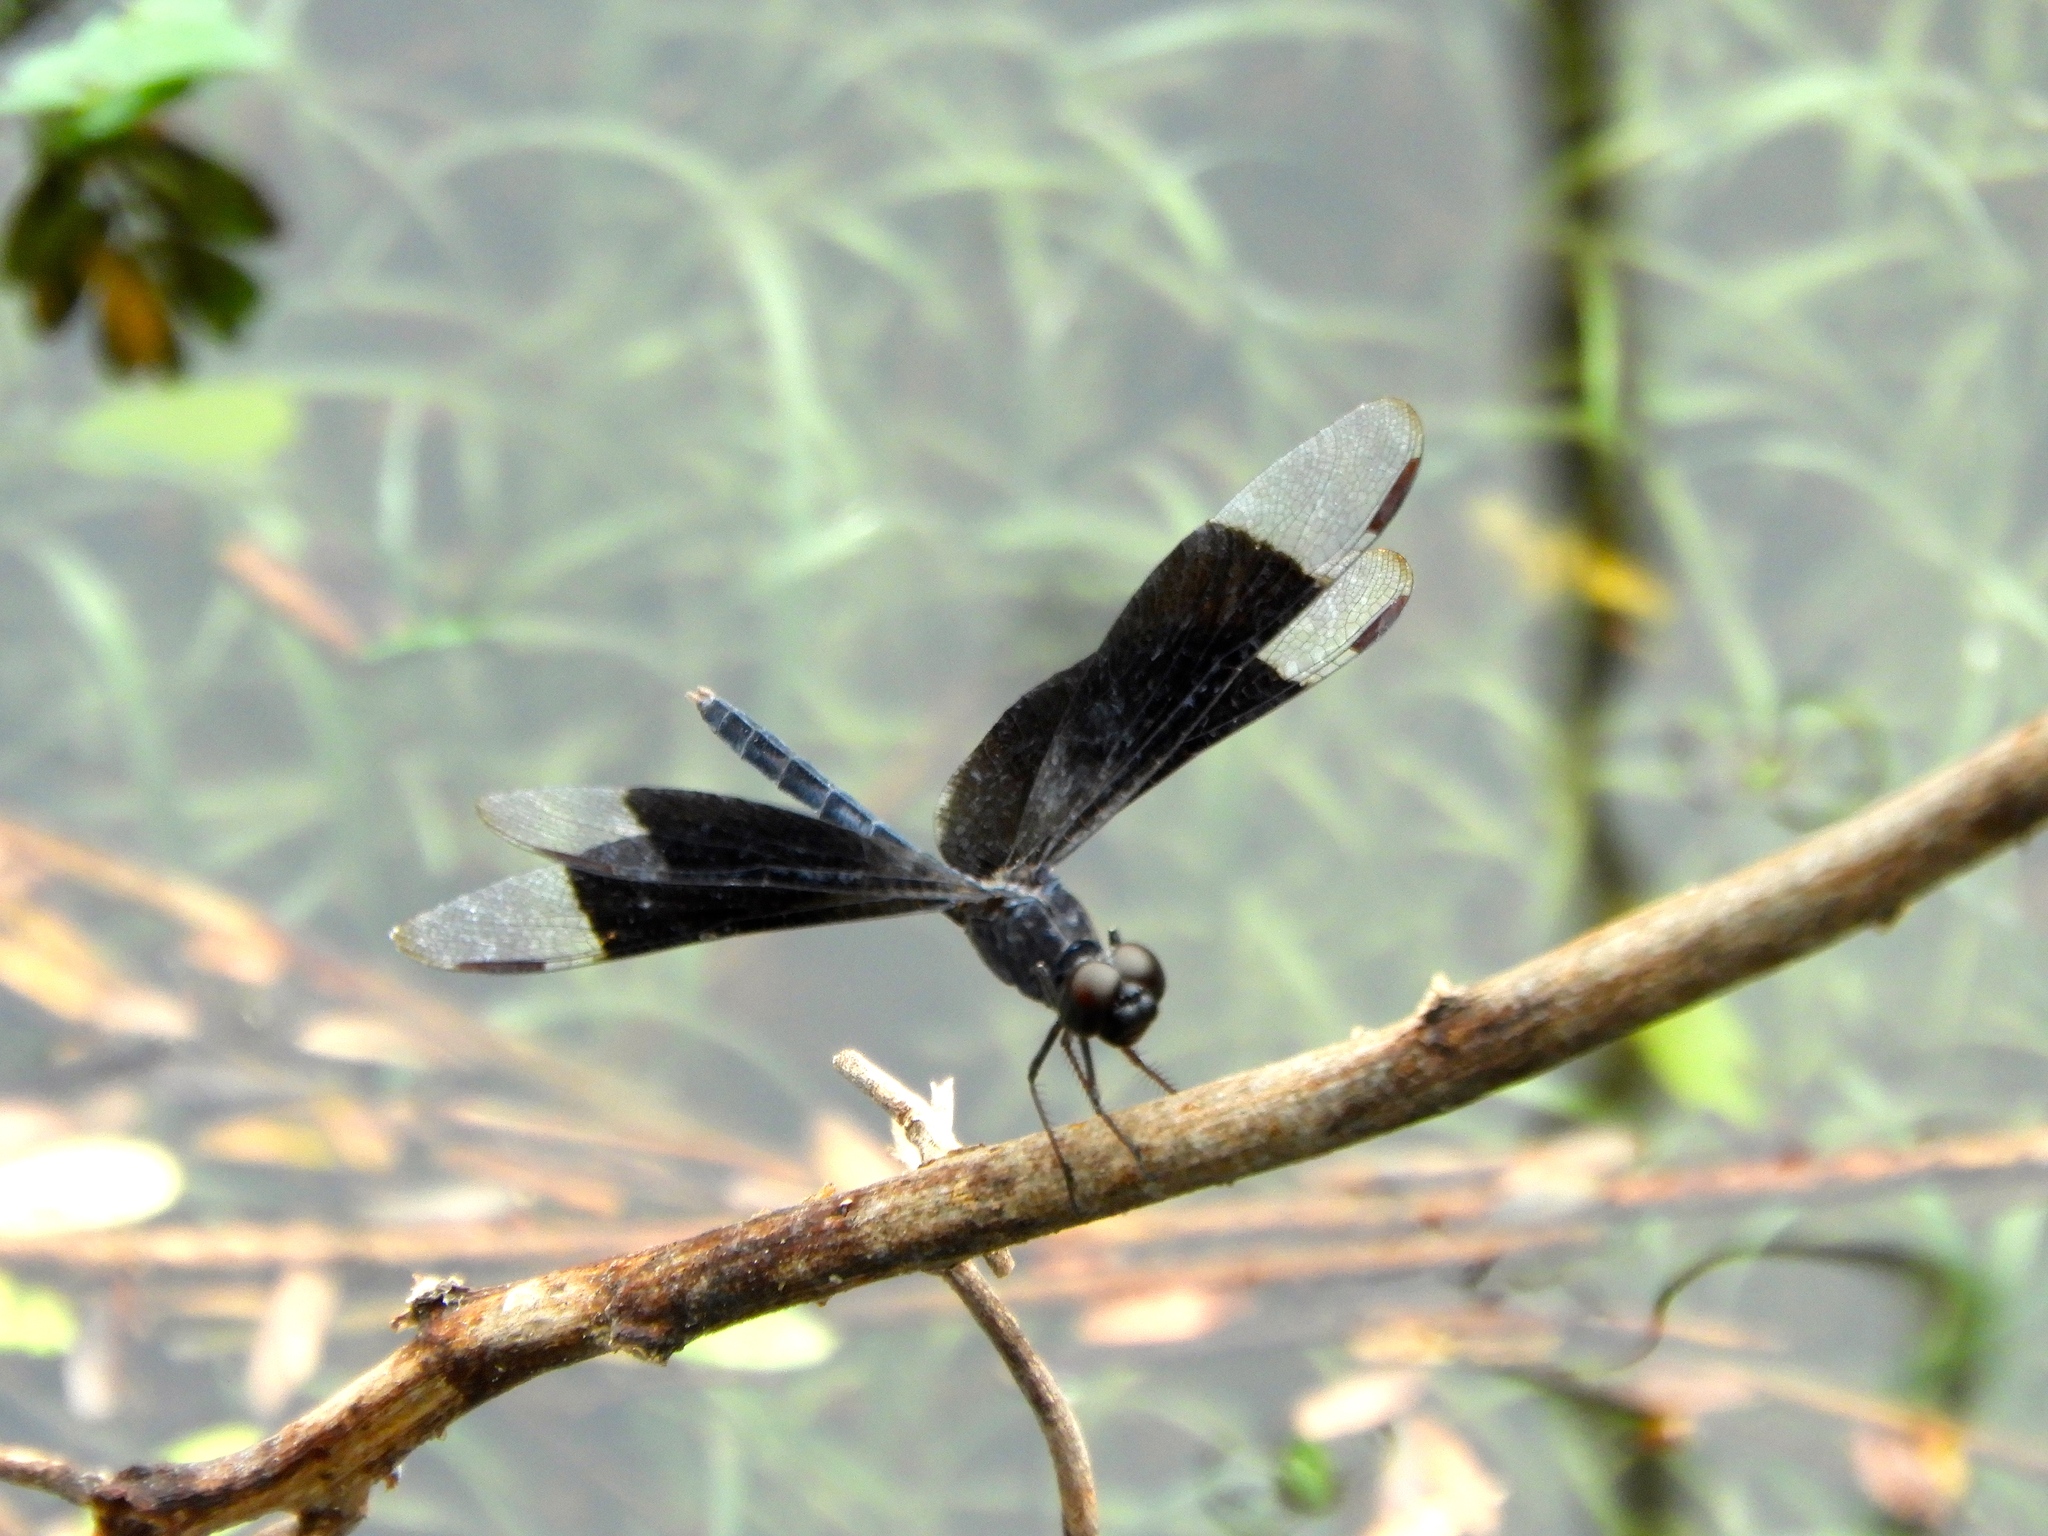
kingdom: Animalia
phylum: Arthropoda
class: Insecta
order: Odonata
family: Libellulidae
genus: Erythrodiplax
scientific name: Erythrodiplax funerea
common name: Black-winged dragonlet
